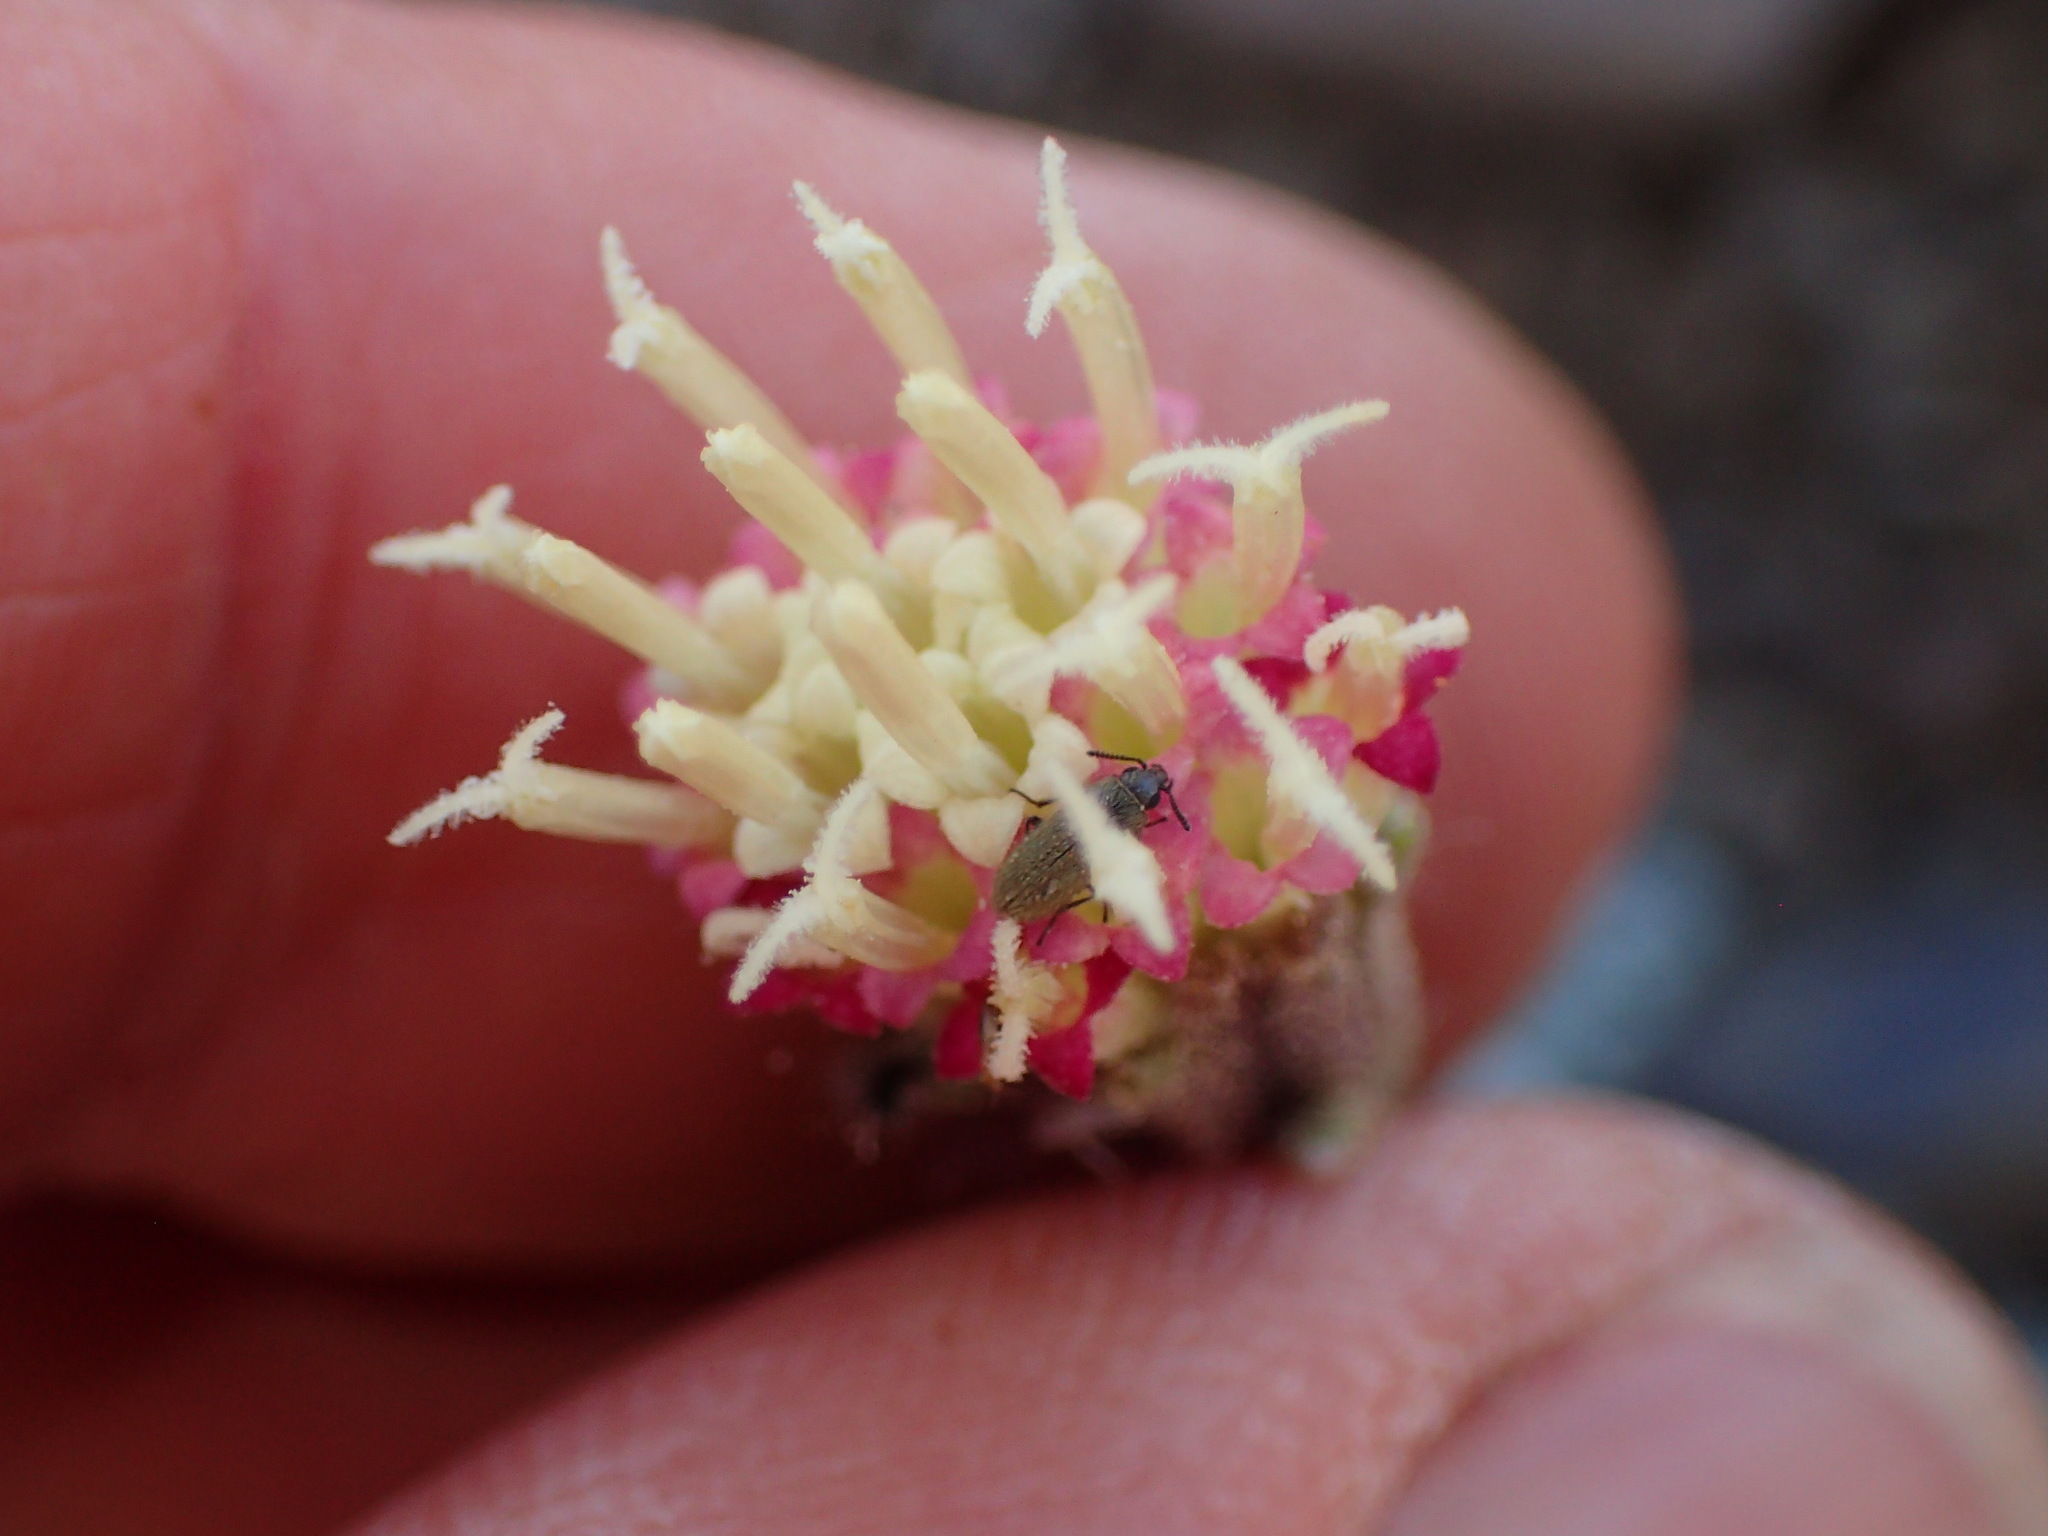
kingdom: Plantae
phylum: Tracheophyta
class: Magnoliopsida
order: Asterales
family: Asteraceae
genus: Chaenactis
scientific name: Chaenactis santolinoides
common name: Santolina pincushion
